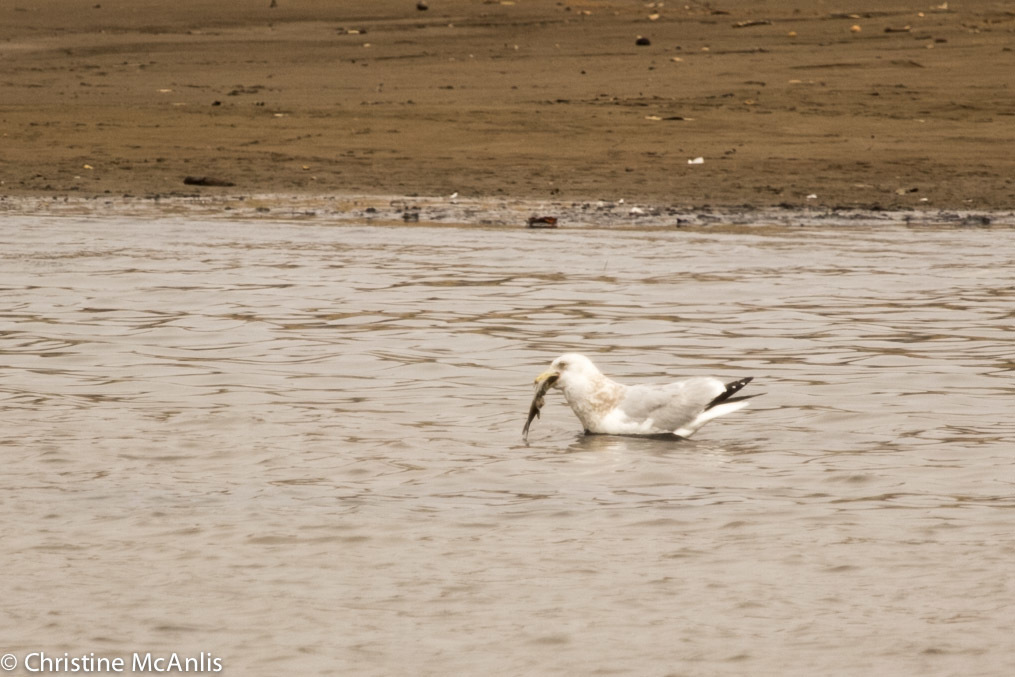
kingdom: Animalia
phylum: Chordata
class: Aves
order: Charadriiformes
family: Laridae
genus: Larus
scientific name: Larus delawarensis
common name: Ring-billed gull
